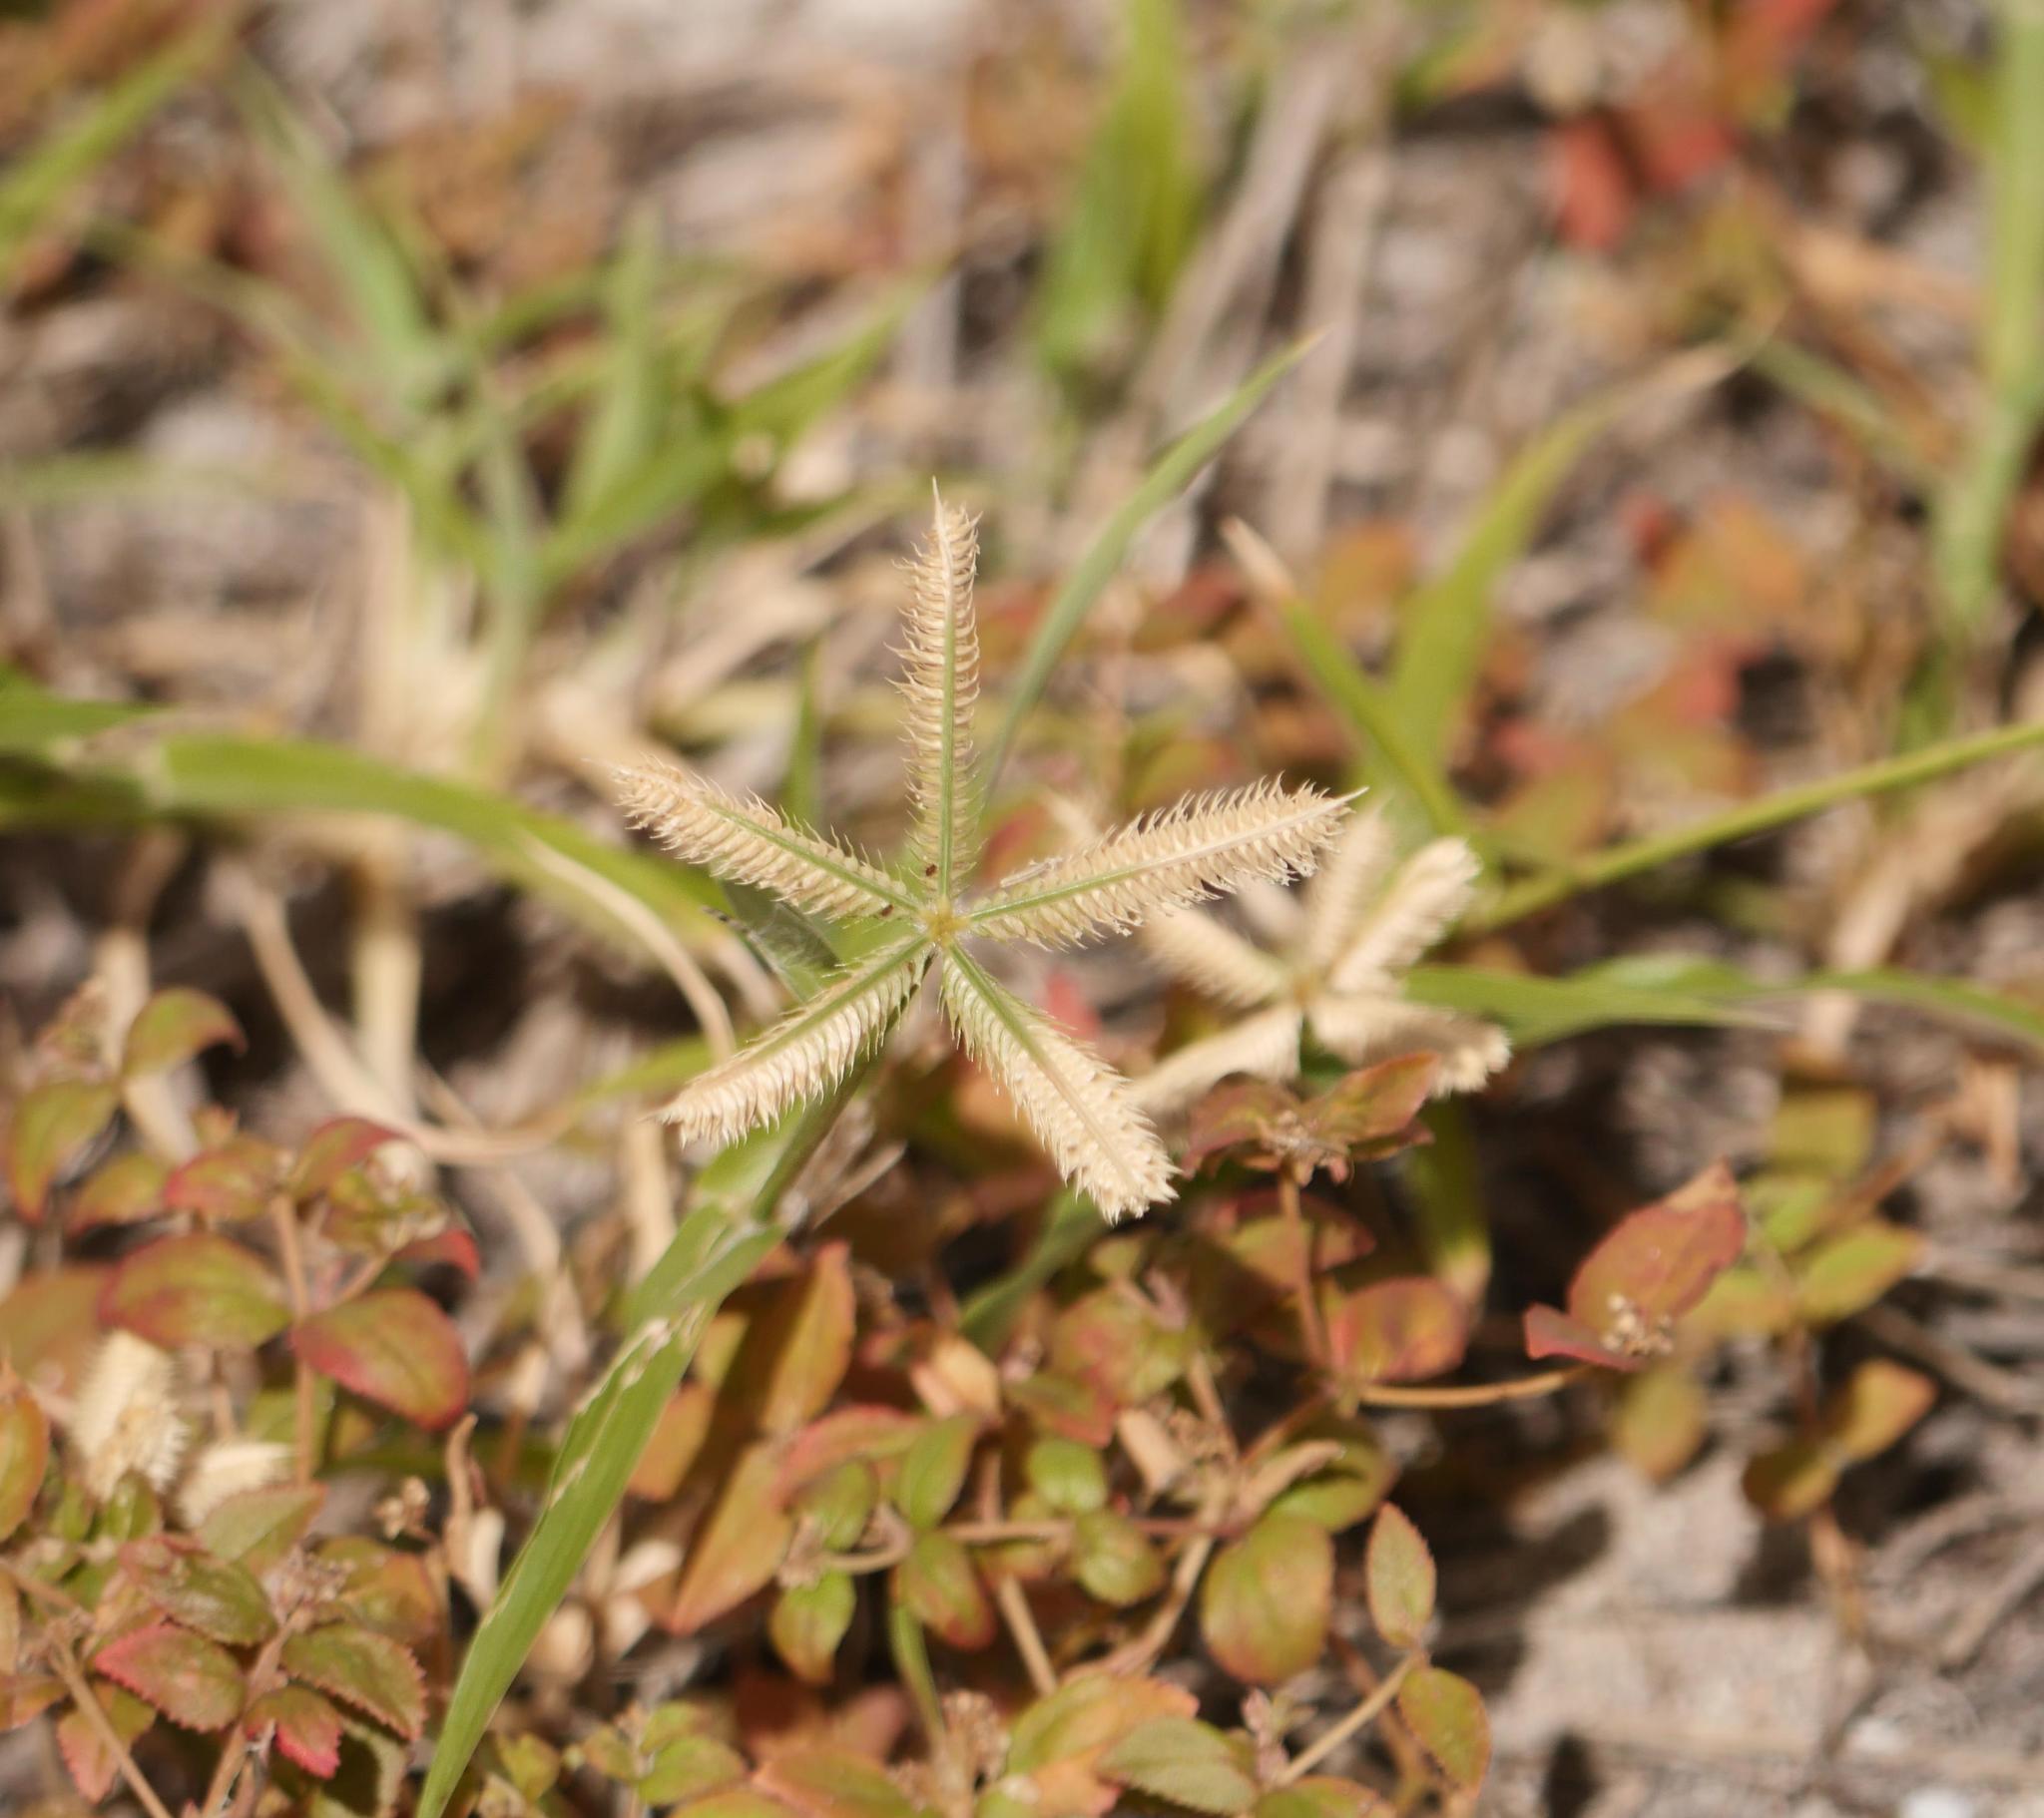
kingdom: Plantae
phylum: Tracheophyta
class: Liliopsida
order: Poales
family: Poaceae
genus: Dactyloctenium
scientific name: Dactyloctenium aegyptium
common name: Egyptian grass
